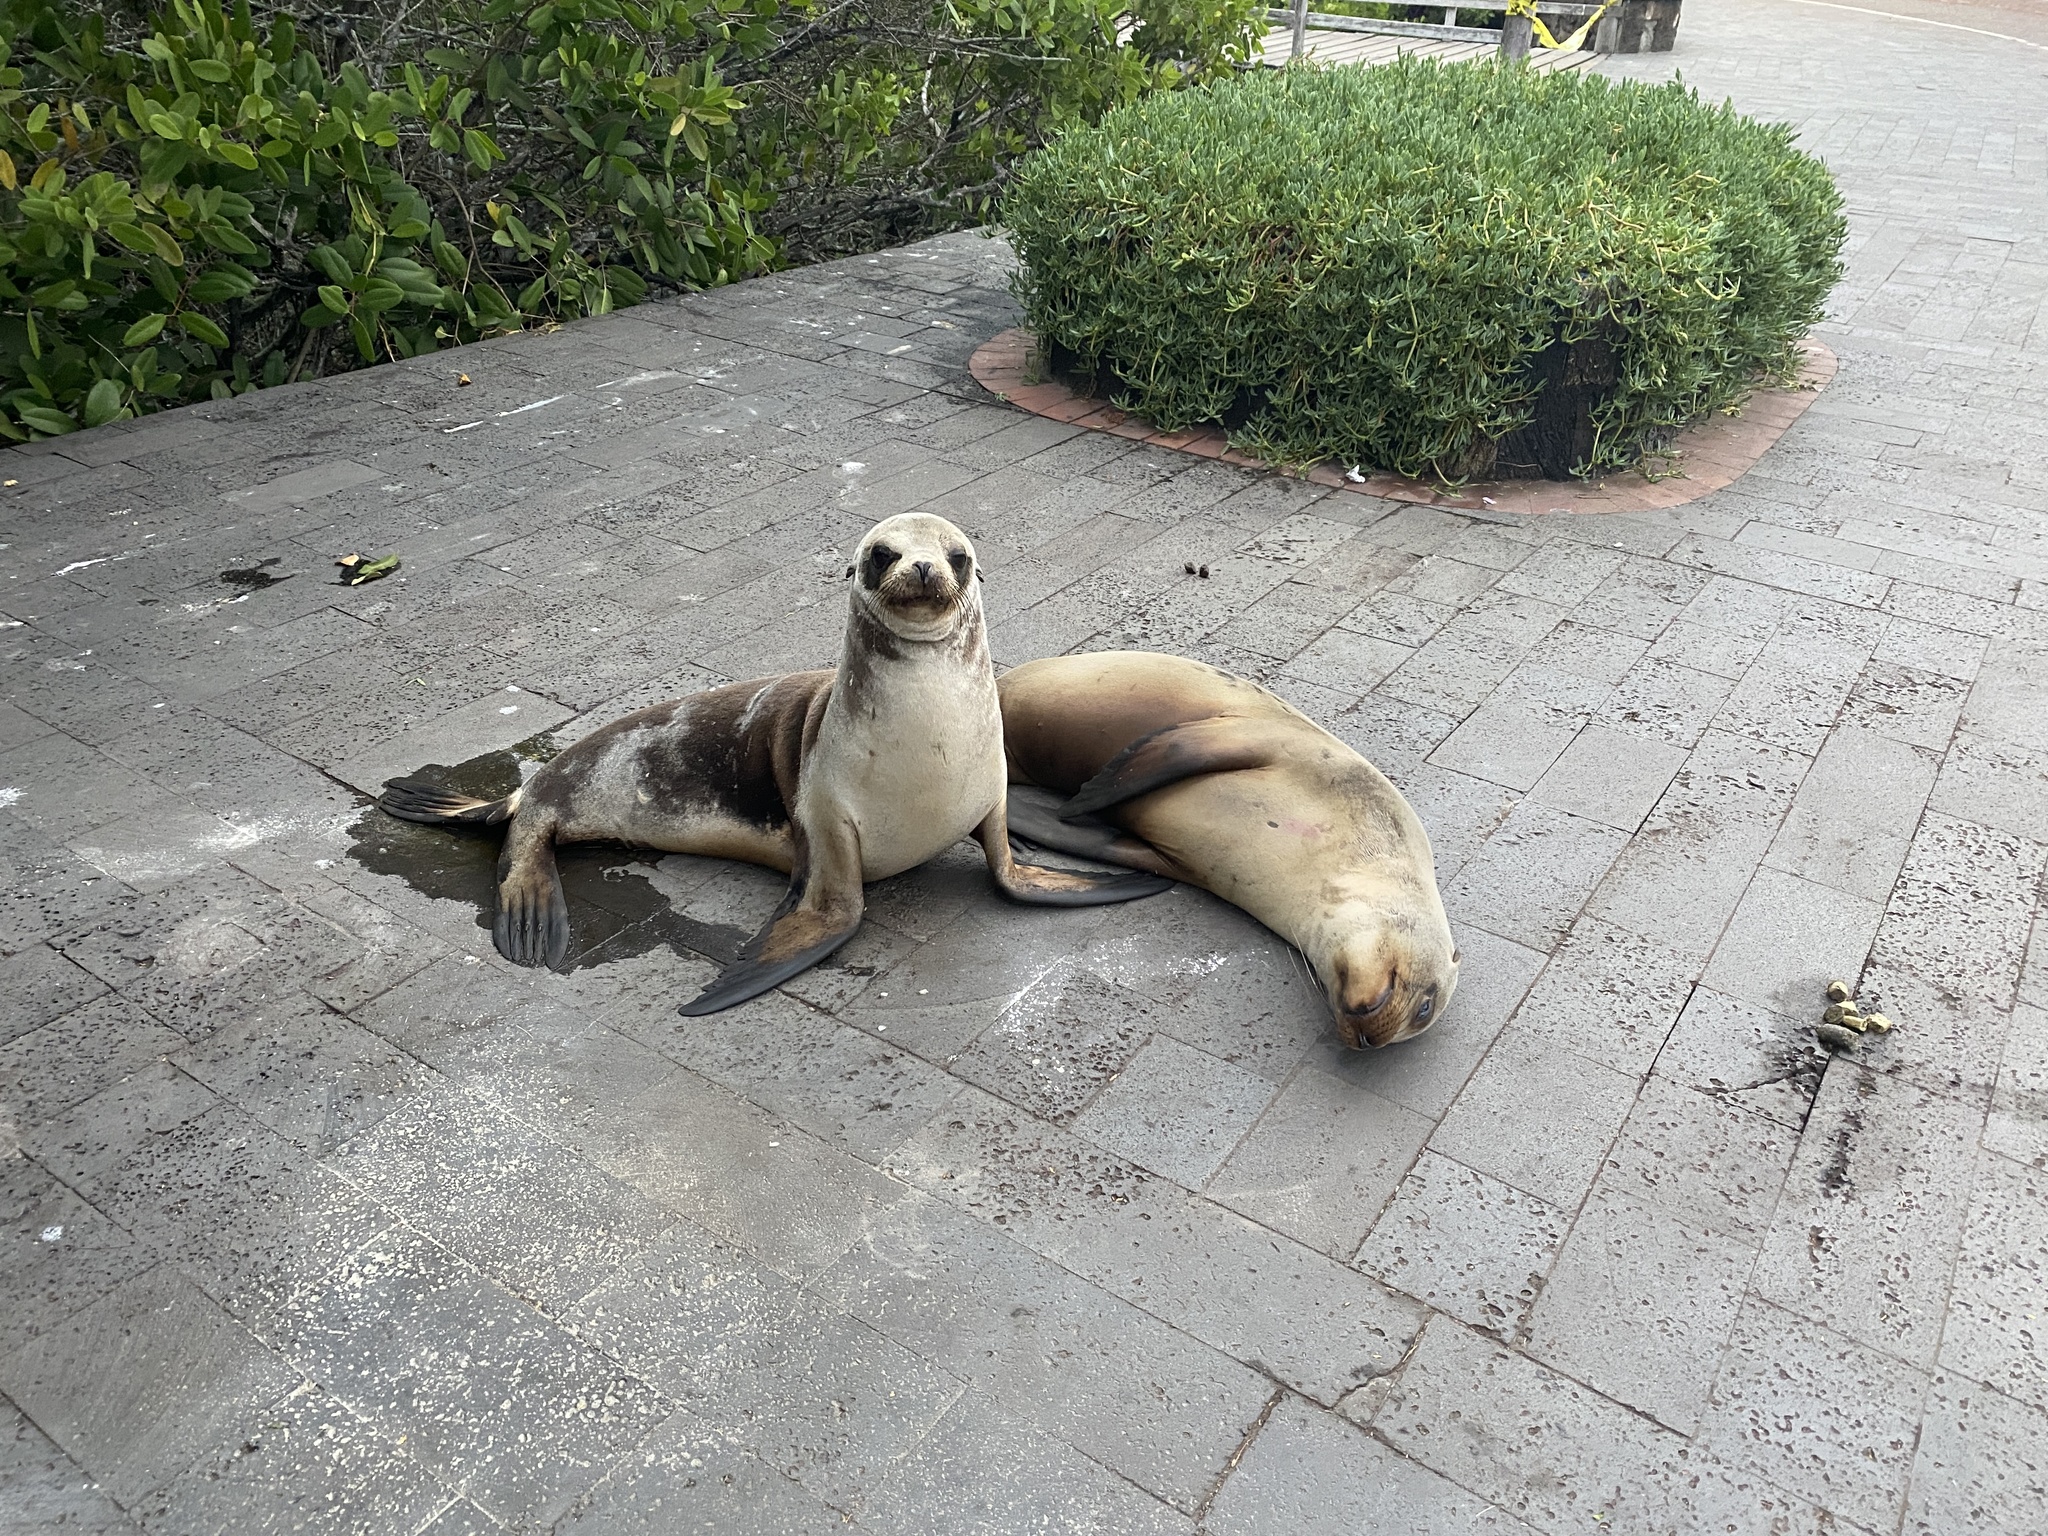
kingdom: Animalia
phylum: Chordata
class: Mammalia
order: Carnivora
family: Otariidae
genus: Zalophus
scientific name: Zalophus wollebaeki
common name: Galapagos sea lion
